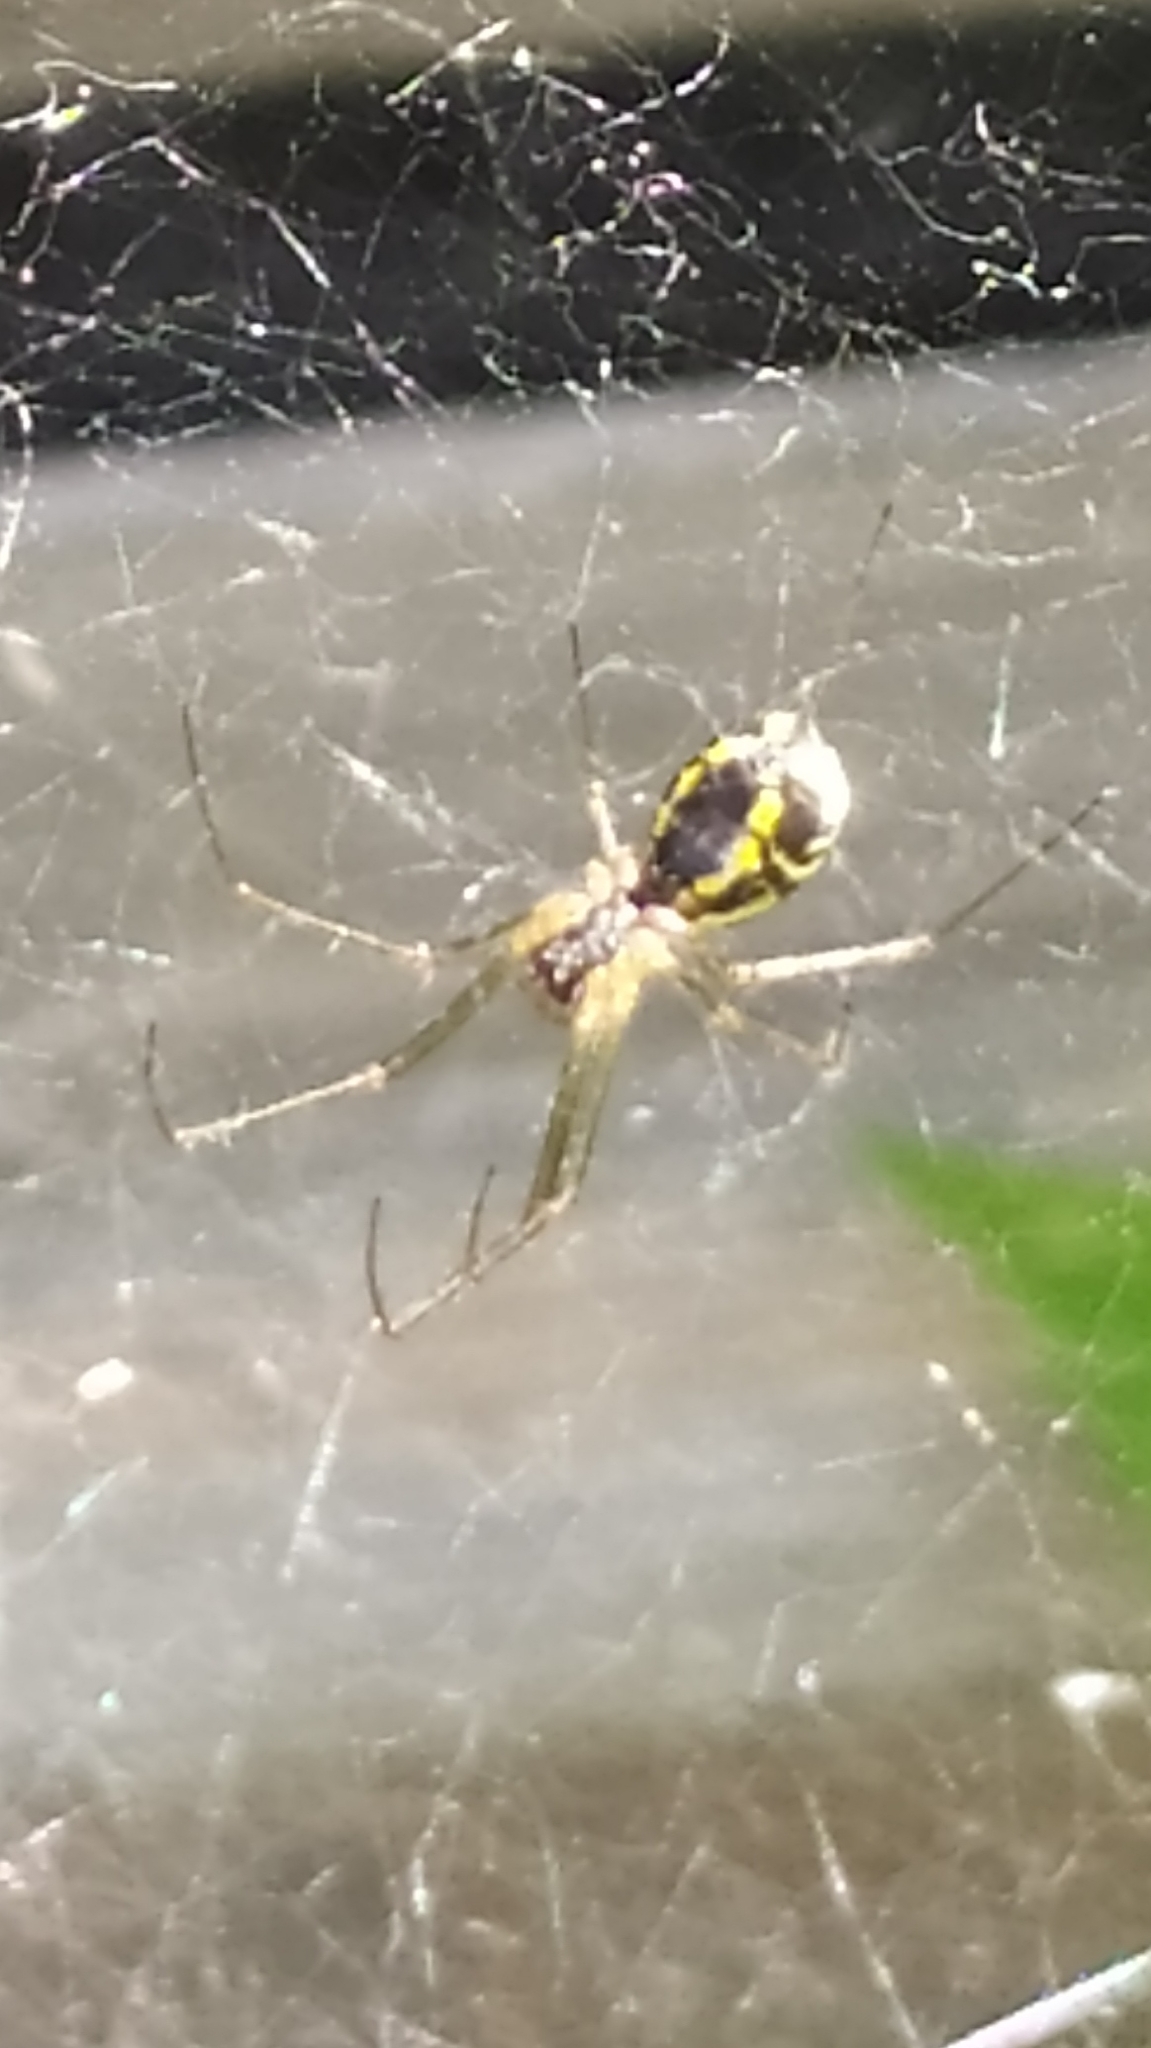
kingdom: Animalia
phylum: Arthropoda
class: Arachnida
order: Araneae
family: Linyphiidae
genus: Neriene
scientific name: Neriene radiata
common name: Filmy dome spider
